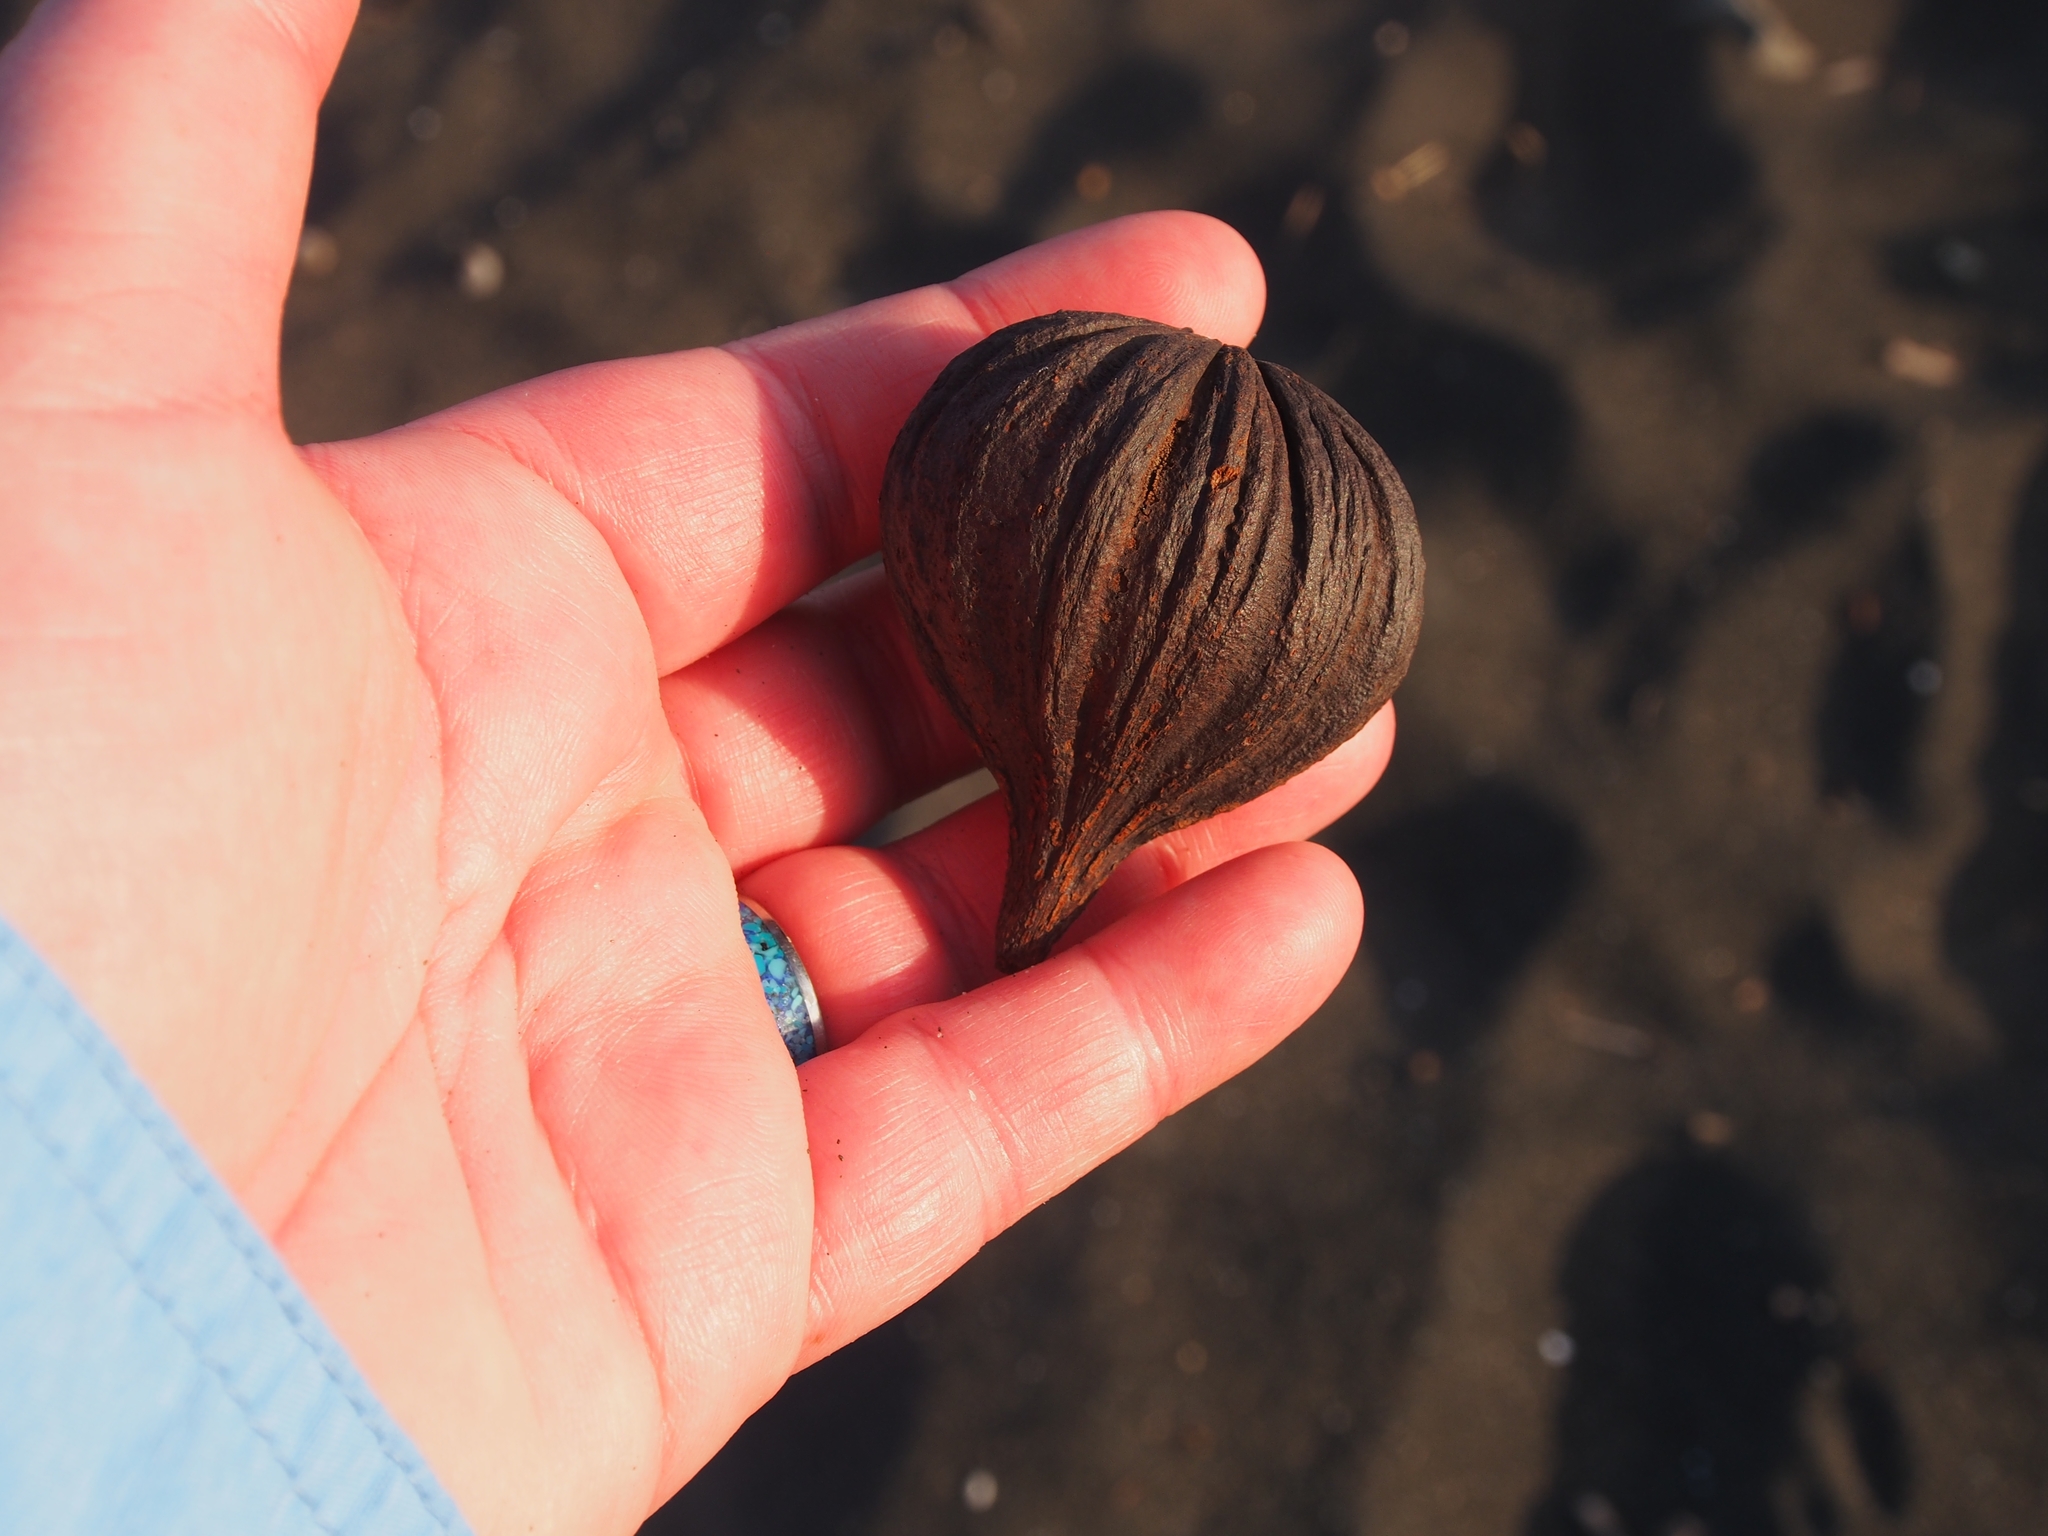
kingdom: Plantae
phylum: Tracheophyta
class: Magnoliopsida
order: Ericales
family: Tetrameristaceae
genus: Pelliciera
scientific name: Pelliciera rhizophorae
